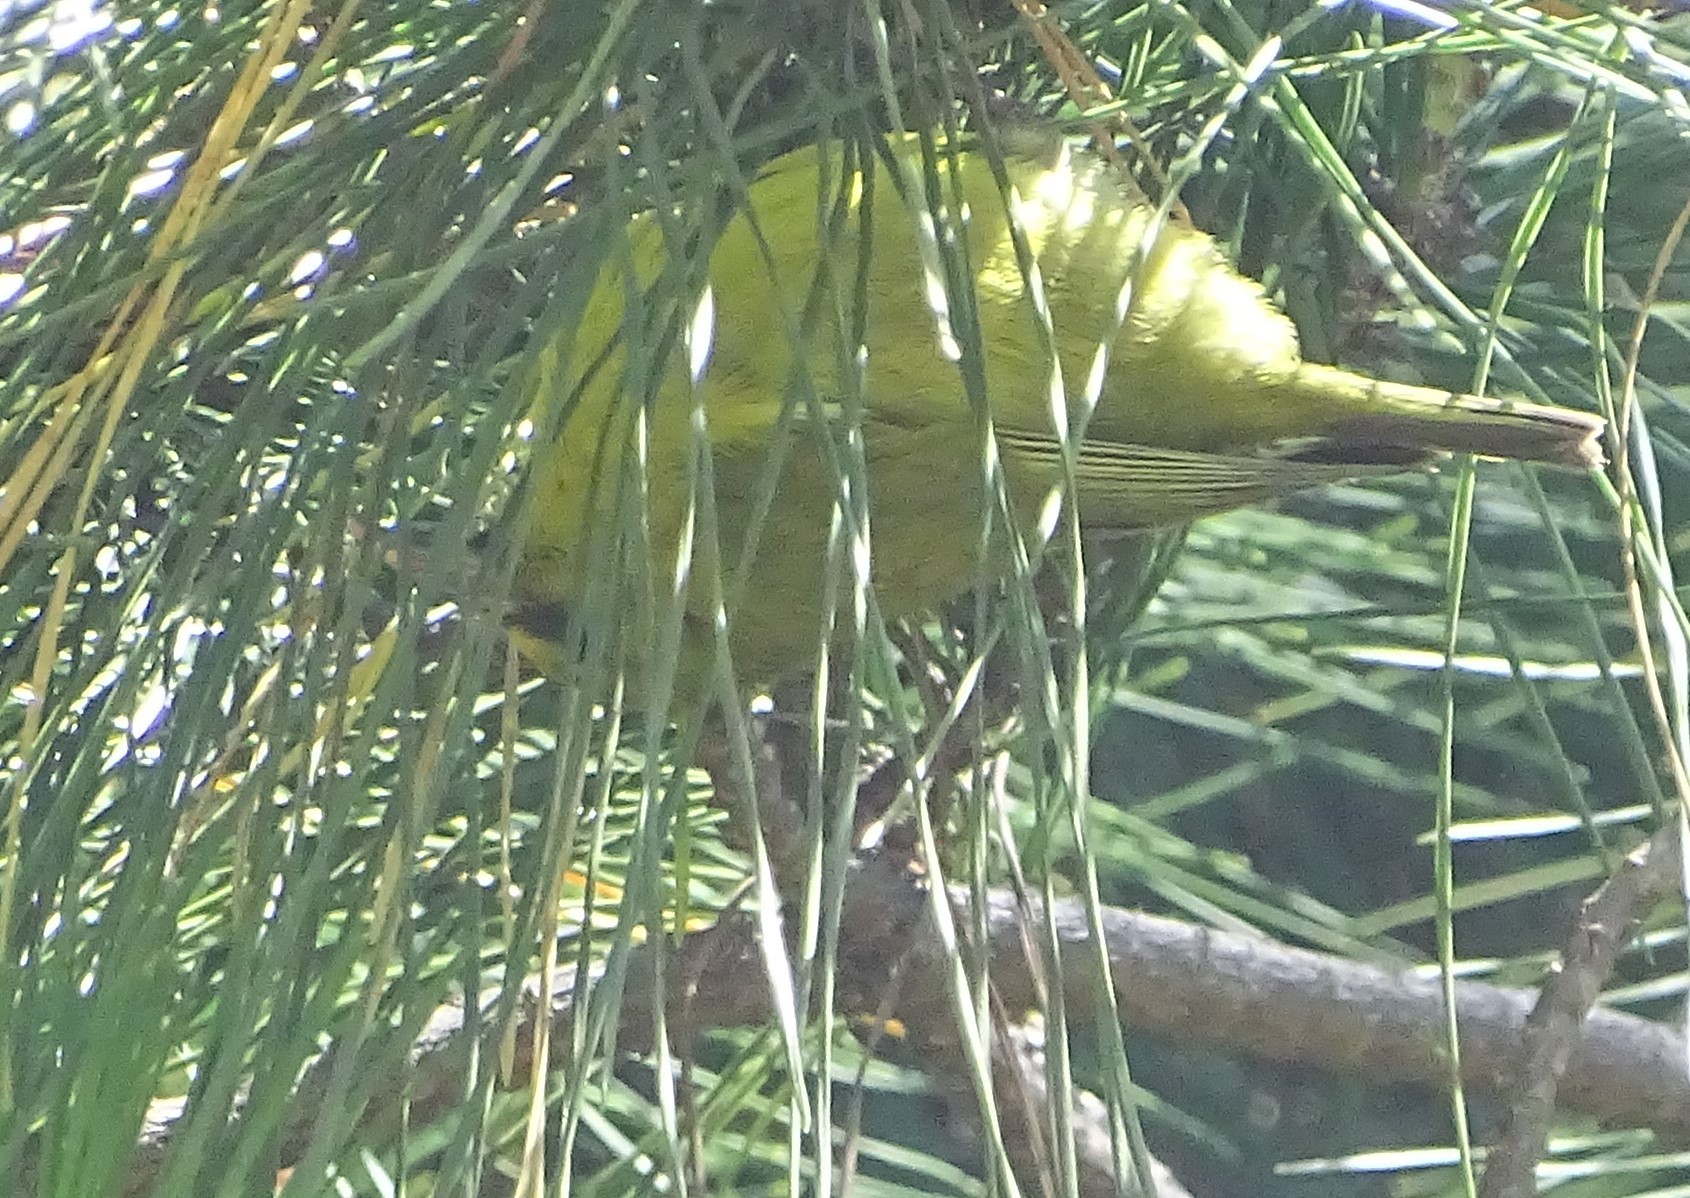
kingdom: Animalia
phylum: Chordata
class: Aves
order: Passeriformes
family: Fringillidae
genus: Chlorodrepanis
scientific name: Chlorodrepanis virens
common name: Hawaii amakihi
